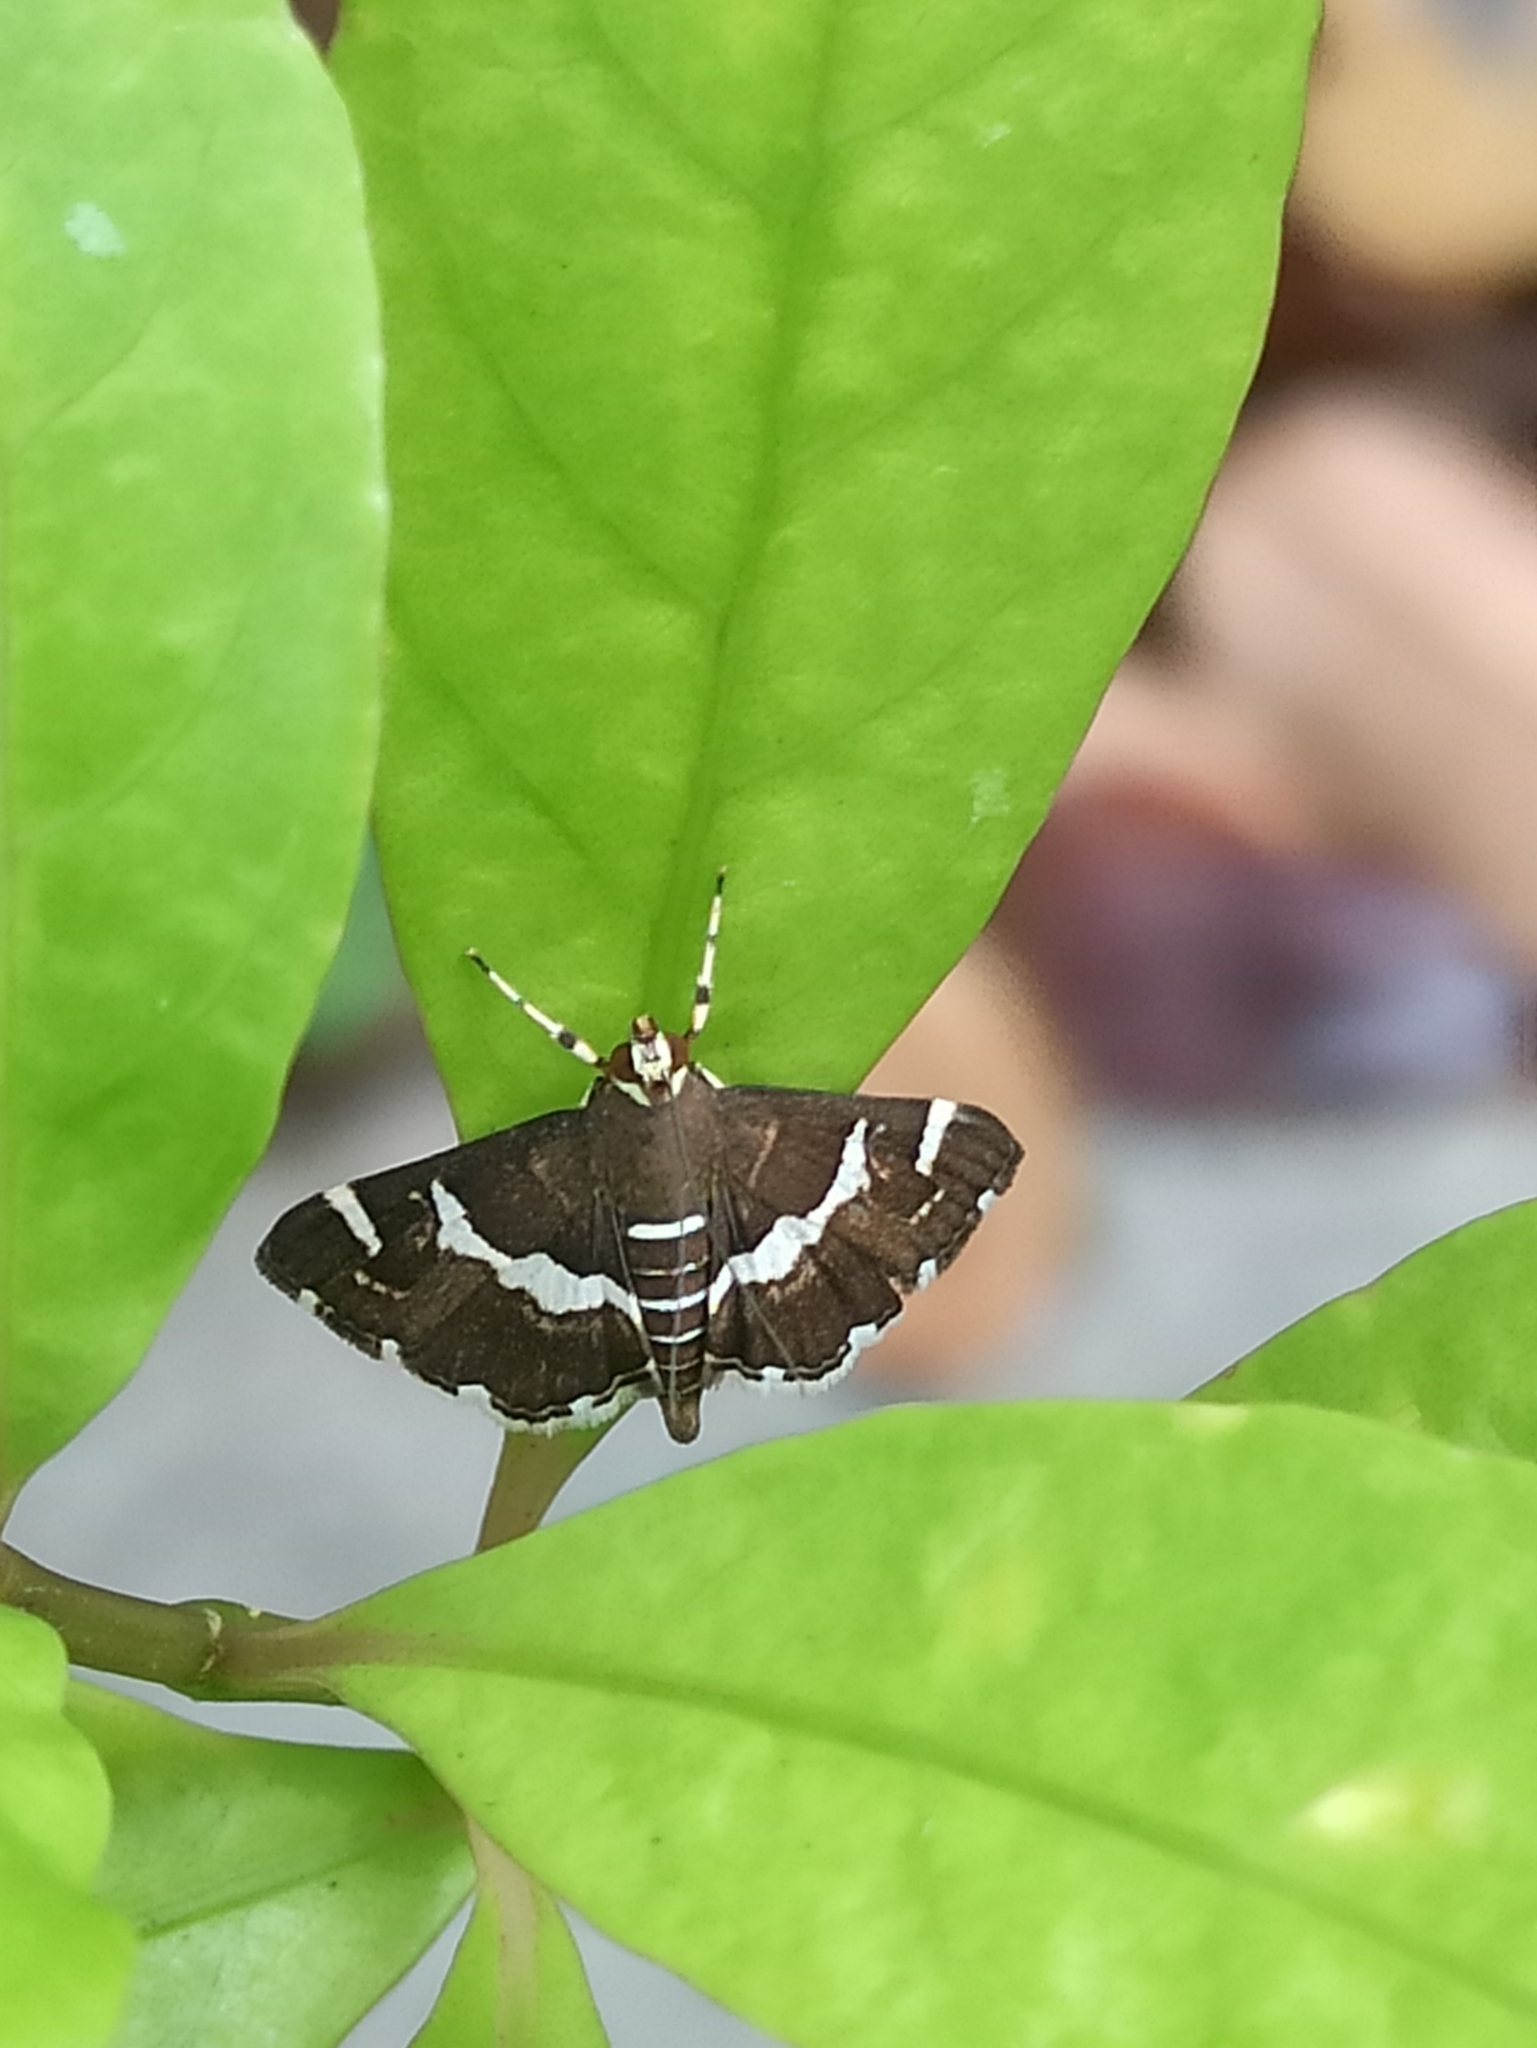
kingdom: Animalia
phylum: Arthropoda
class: Insecta
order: Lepidoptera
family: Crambidae
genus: Spoladea
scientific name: Spoladea recurvalis
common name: Beet webworm moth
